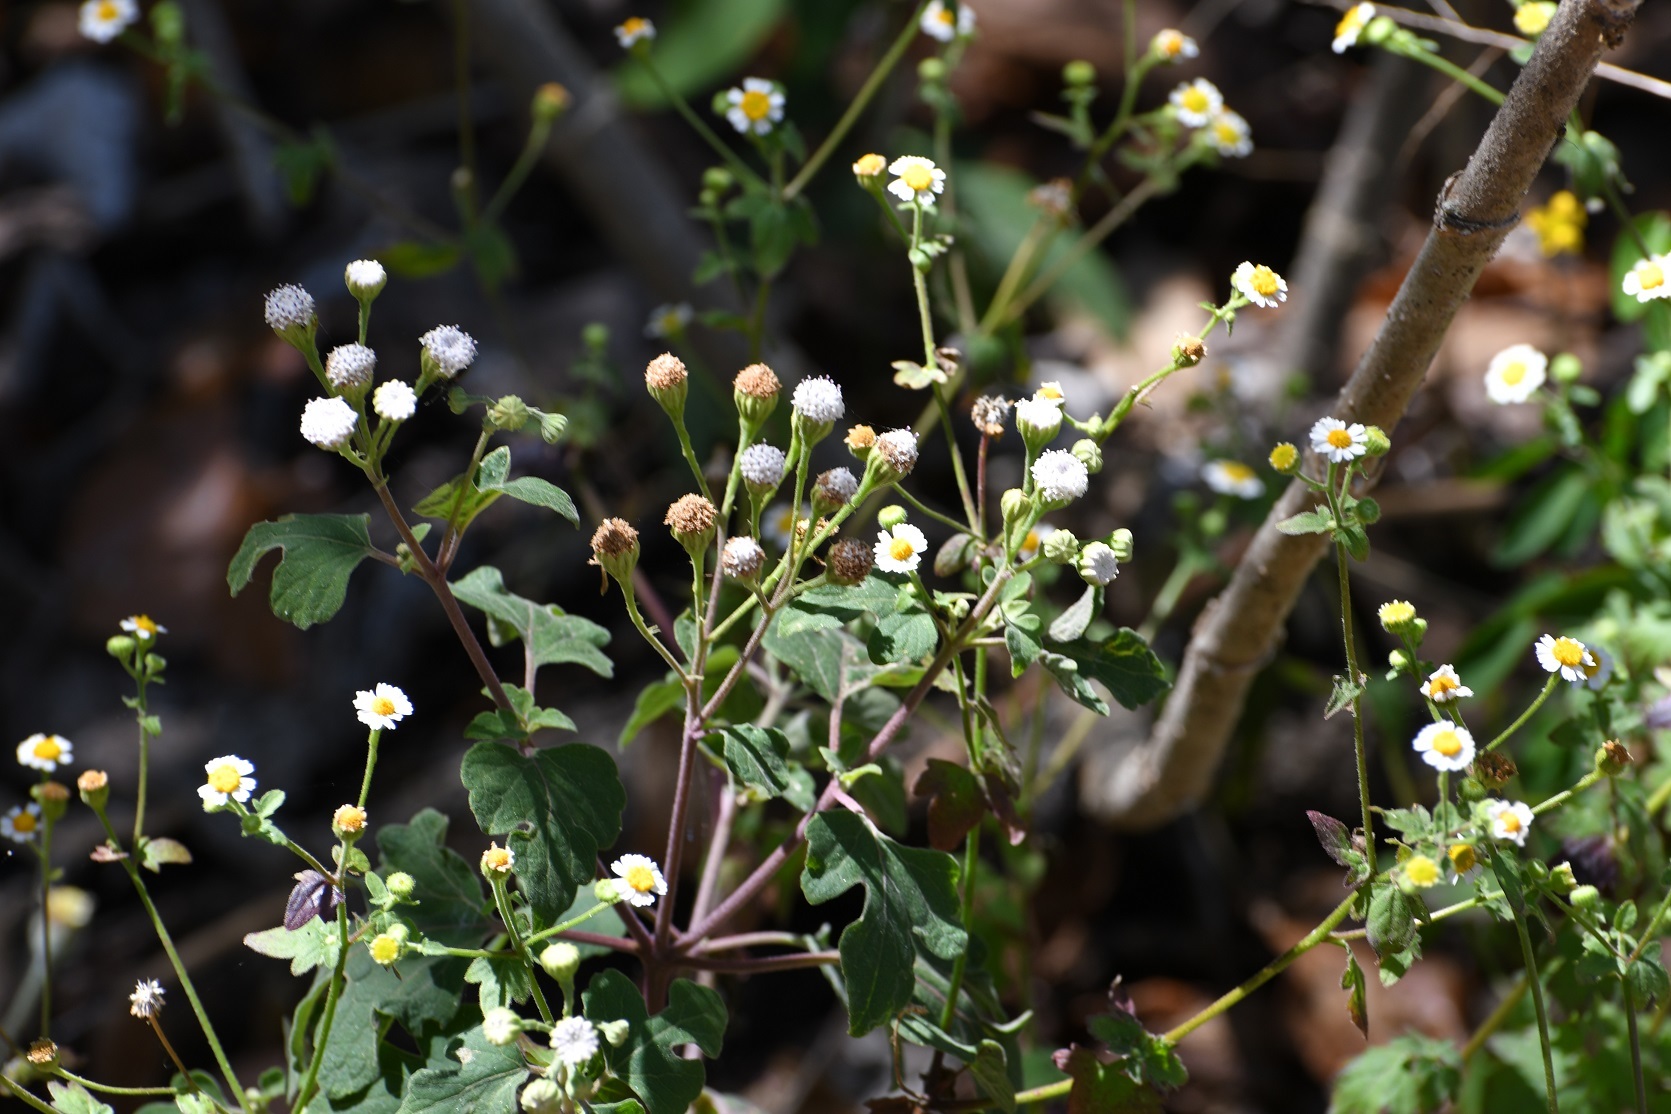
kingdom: Plantae
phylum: Tracheophyta
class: Magnoliopsida
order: Asterales
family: Asteraceae
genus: Galinsogeopsis
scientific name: Galinsogeopsis spilanthoides
